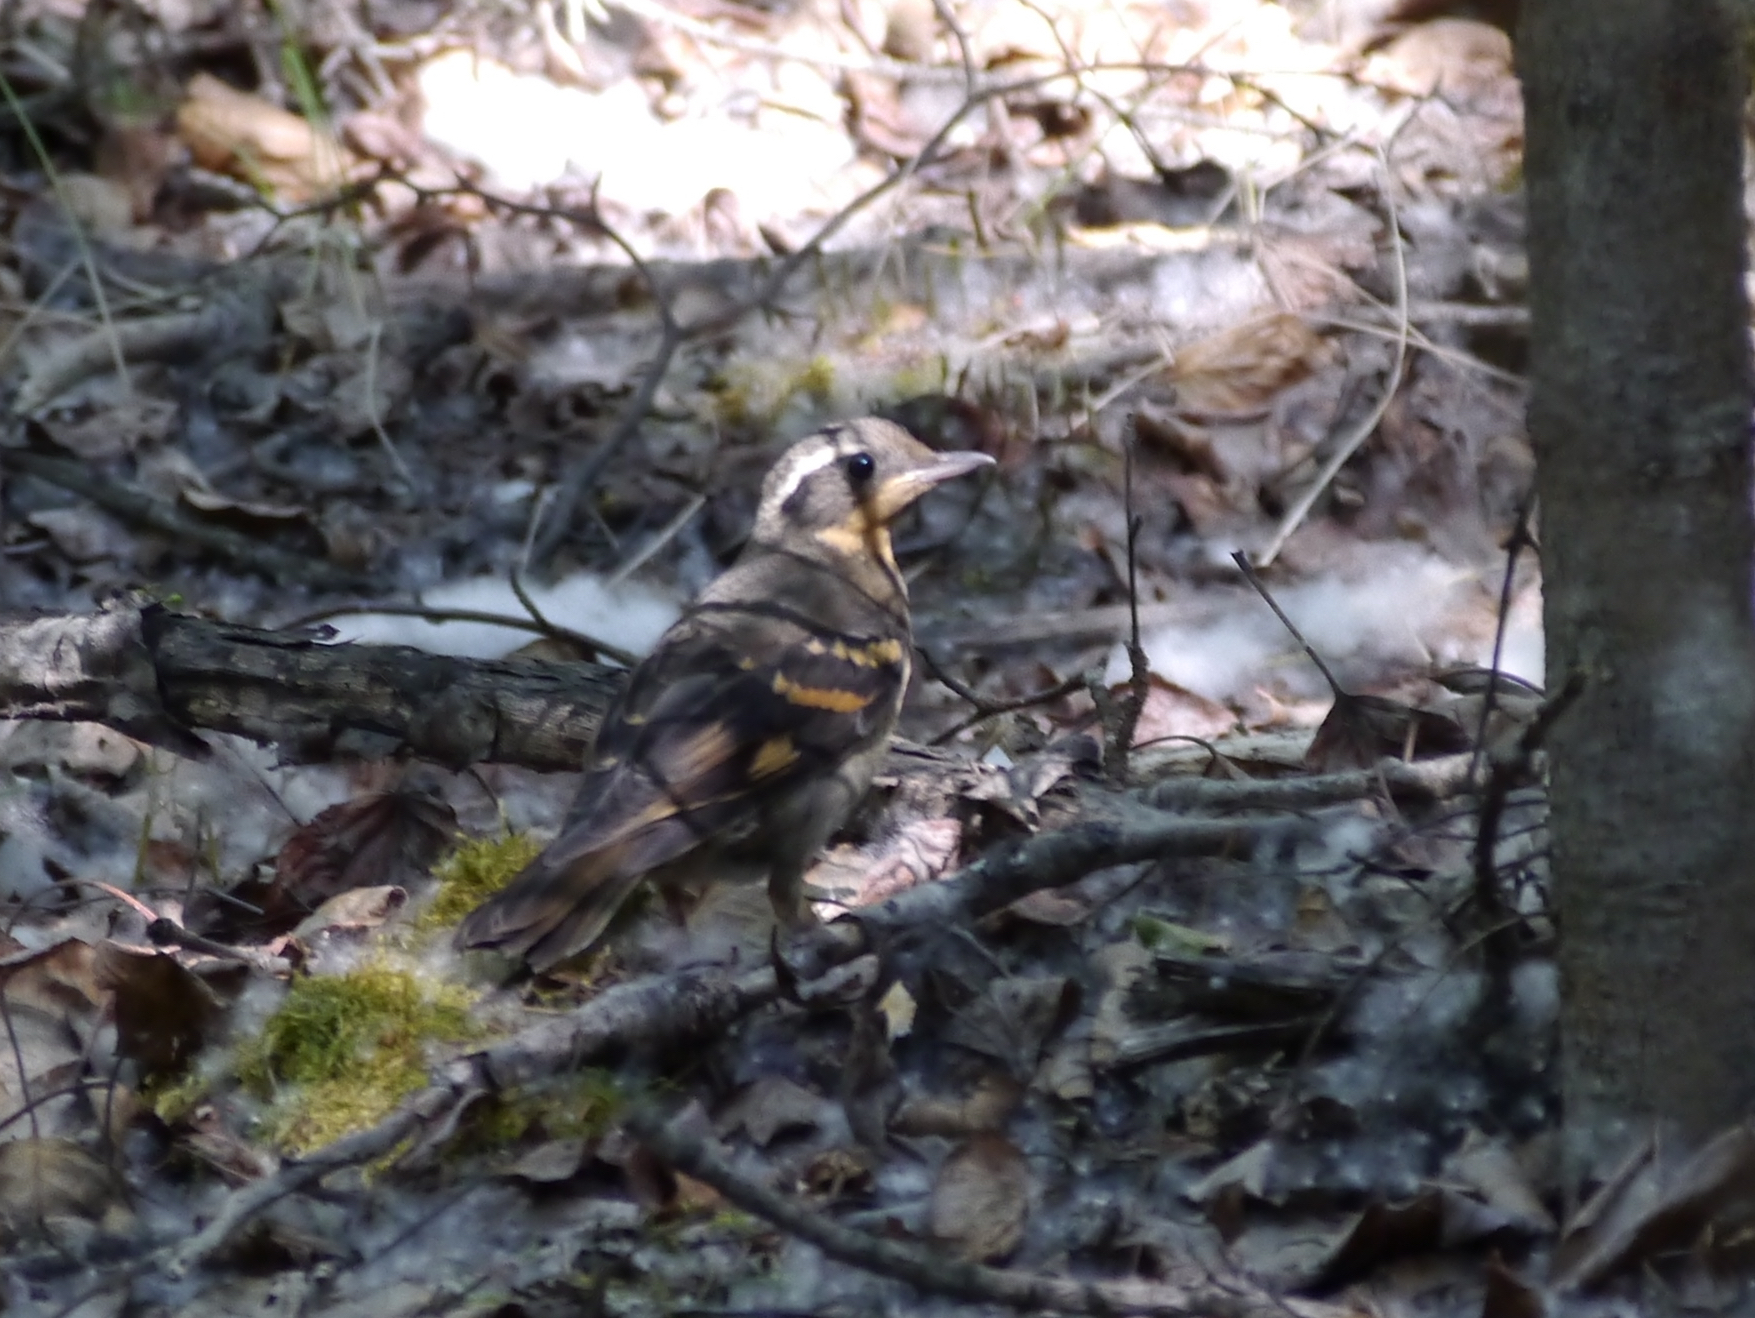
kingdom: Animalia
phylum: Chordata
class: Aves
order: Passeriformes
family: Turdidae
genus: Ixoreus
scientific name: Ixoreus naevius
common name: Varied thrush
